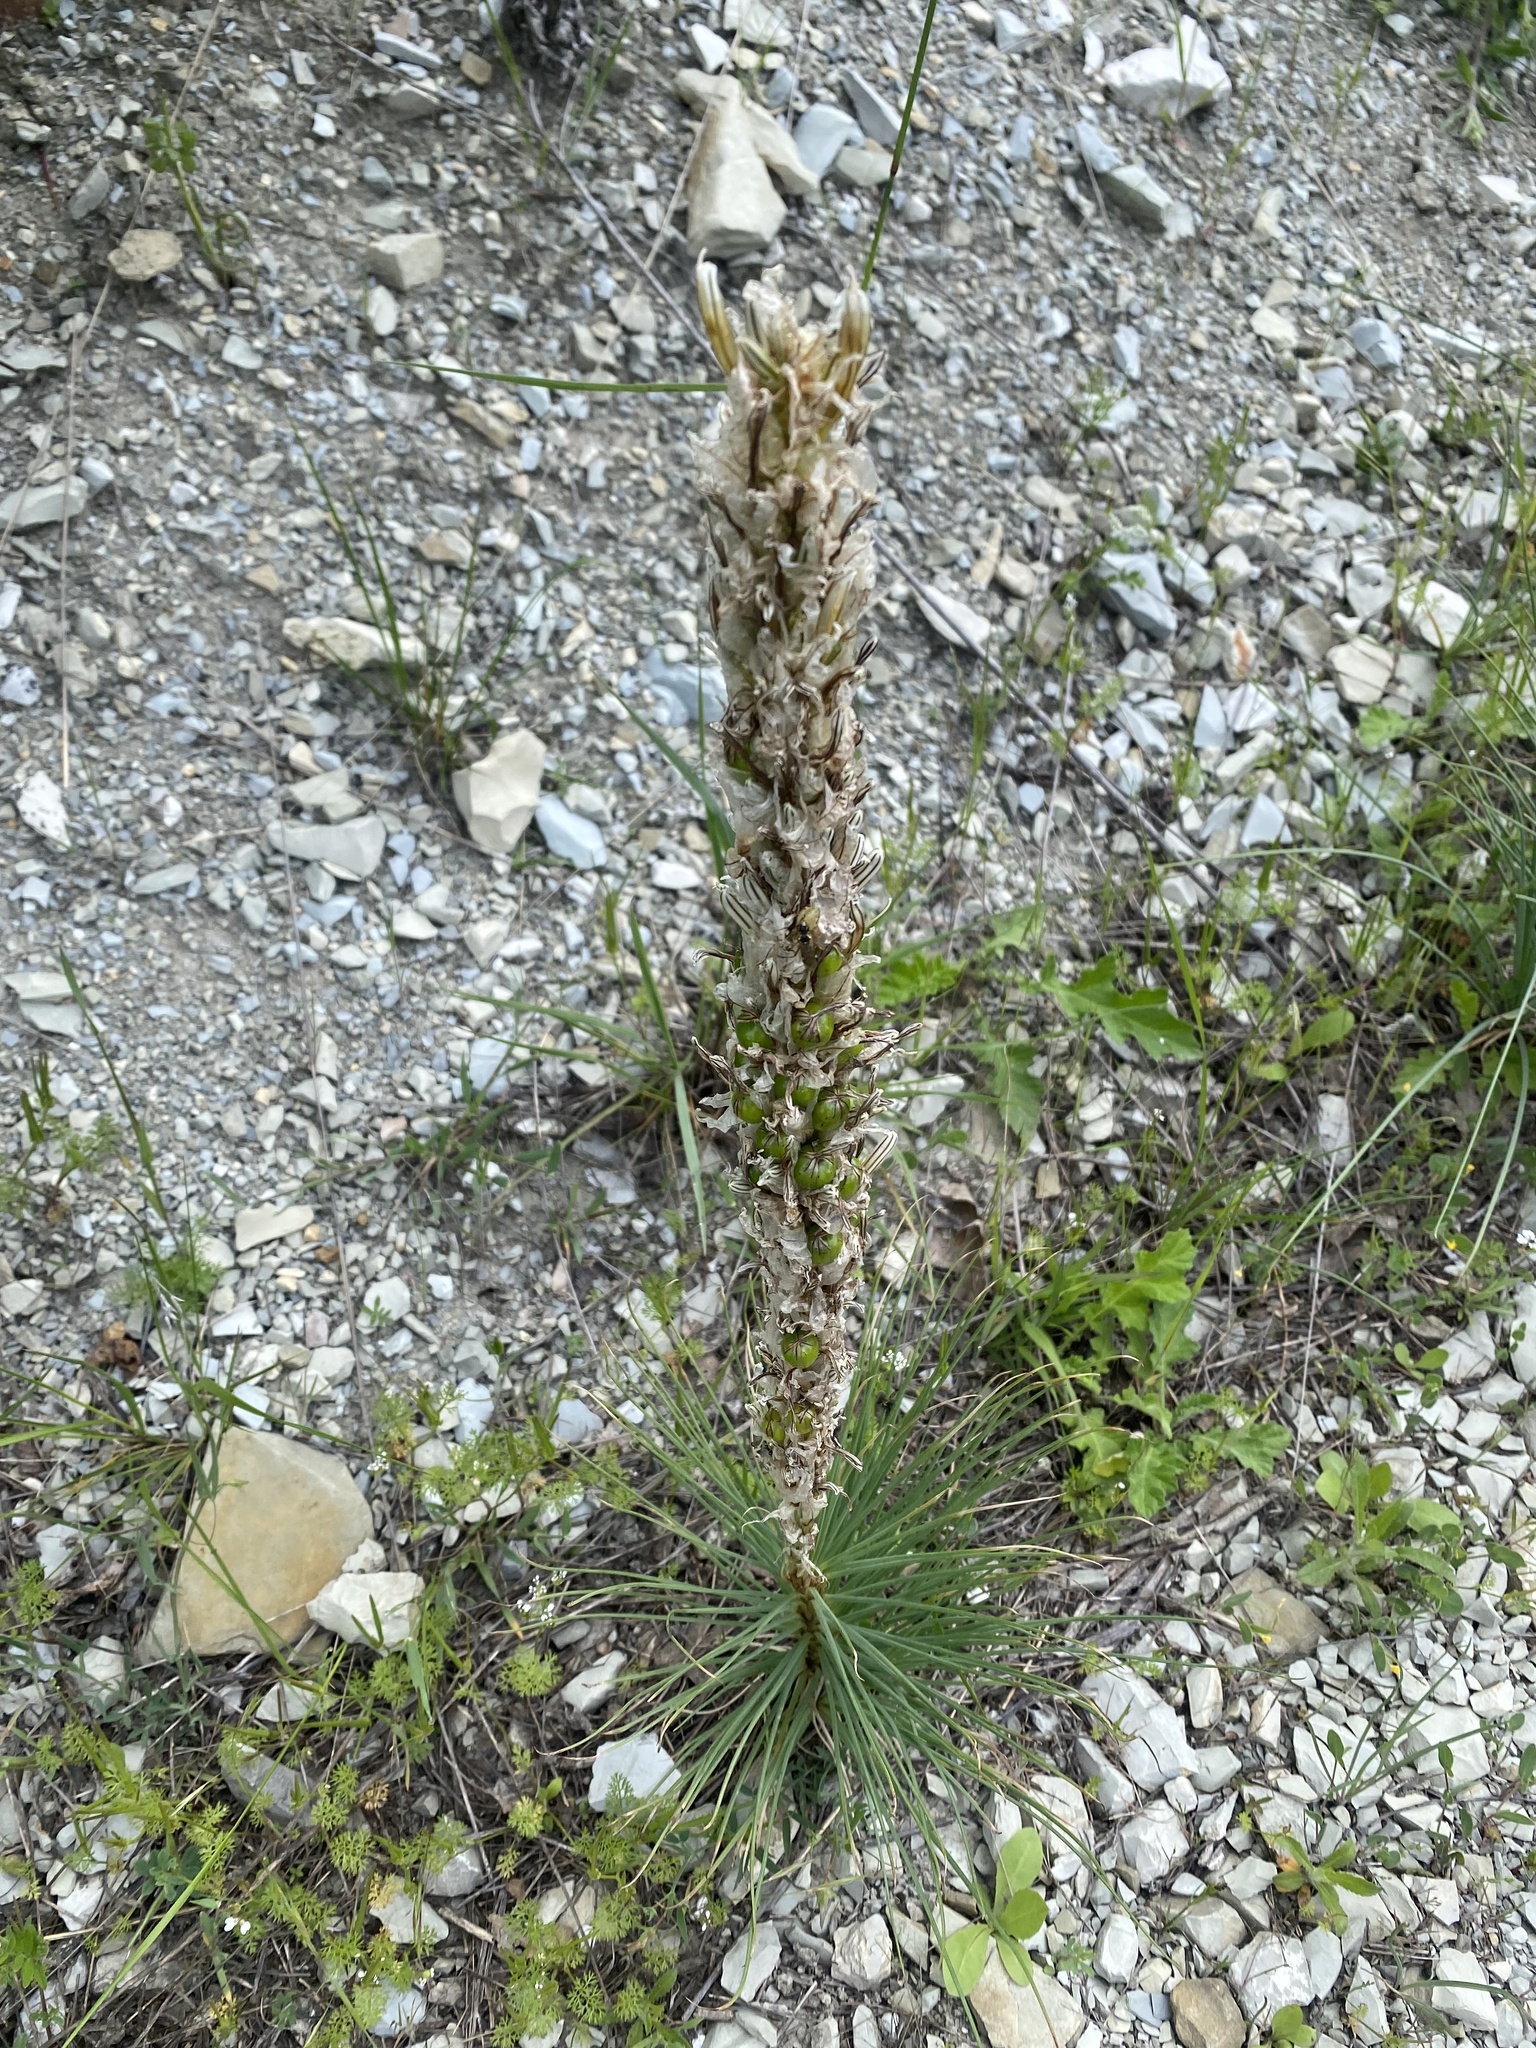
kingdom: Plantae
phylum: Tracheophyta
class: Liliopsida
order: Asparagales
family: Asphodelaceae
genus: Asphodeline
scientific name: Asphodeline taurica
